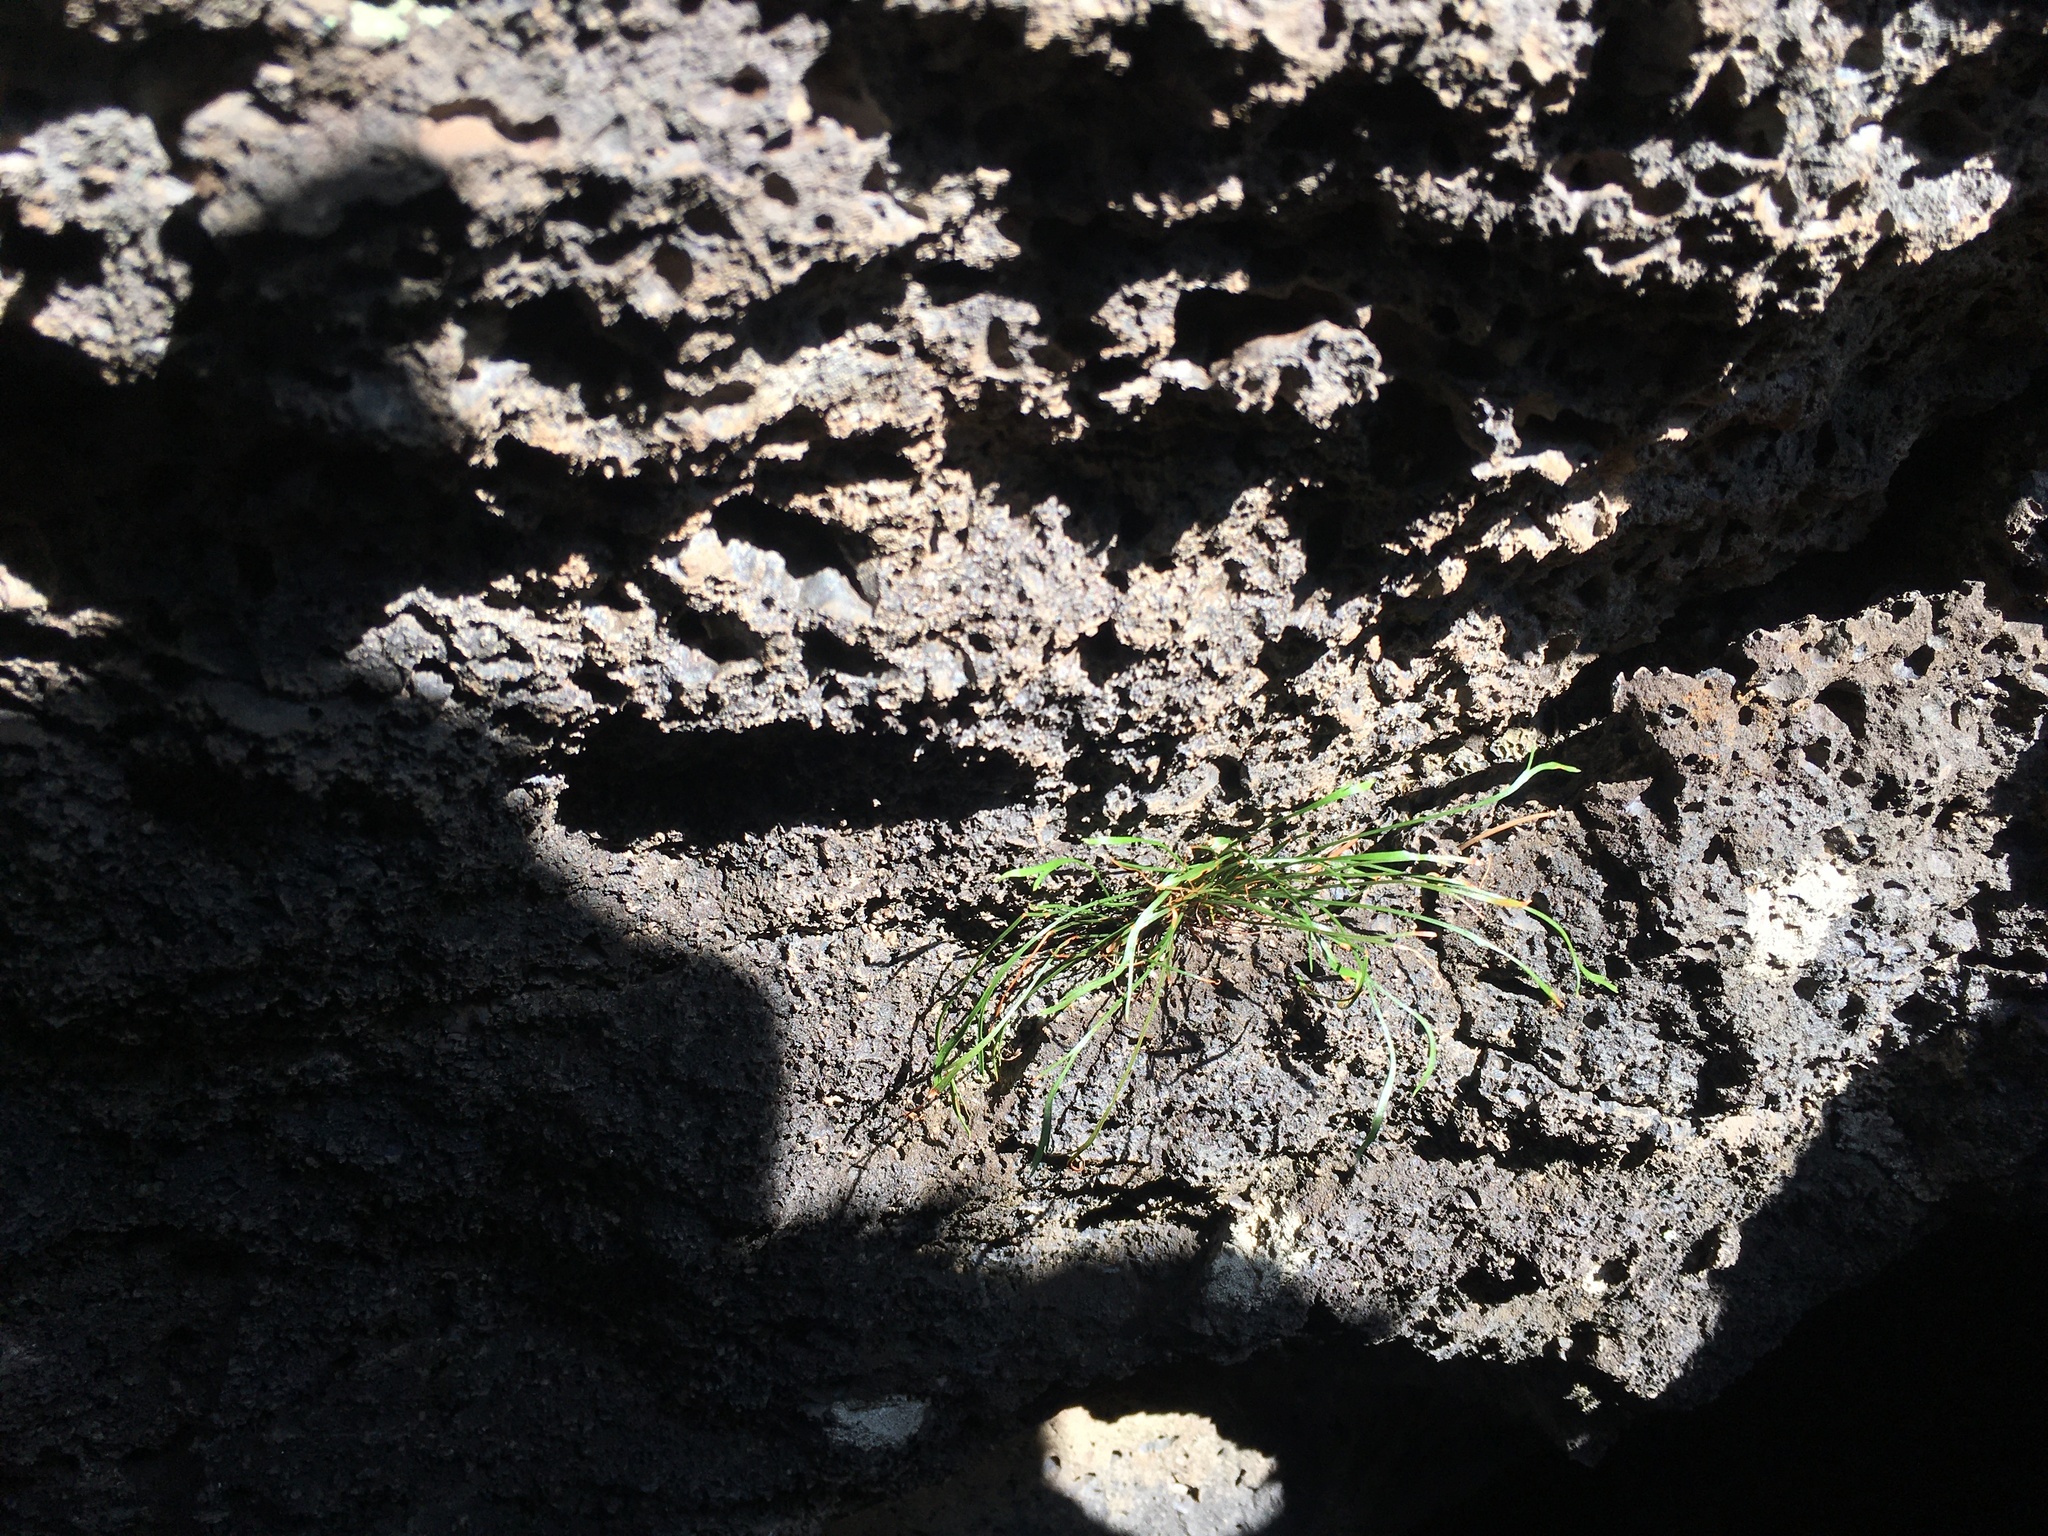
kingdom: Plantae
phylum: Tracheophyta
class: Polypodiopsida
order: Polypodiales
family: Aspleniaceae
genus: Asplenium
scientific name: Asplenium septentrionale
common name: Forked spleenwort
